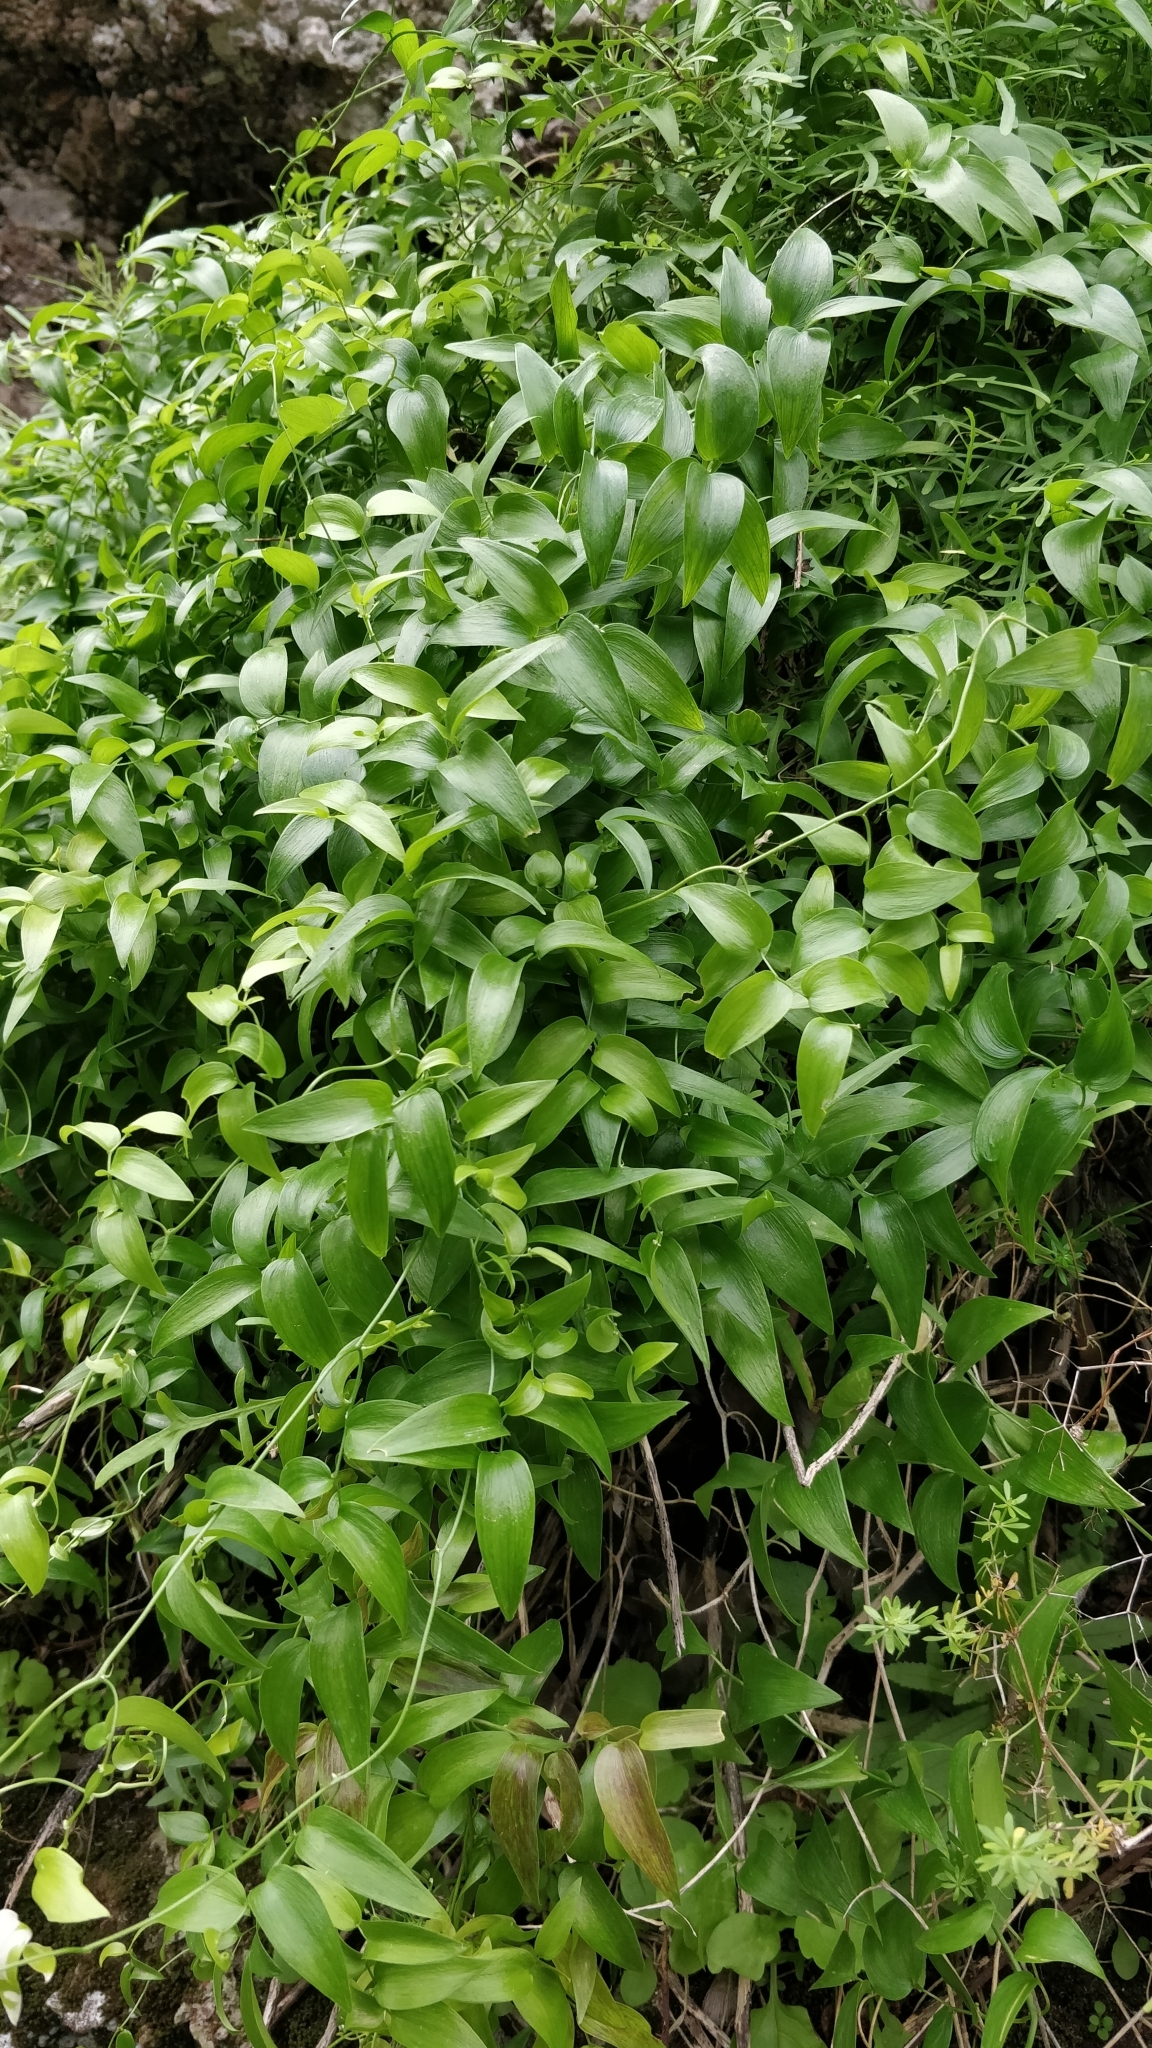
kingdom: Plantae
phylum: Tracheophyta
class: Liliopsida
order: Asparagales
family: Asparagaceae
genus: Asparagus
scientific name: Asparagus asparagoides
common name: African asparagus fern
